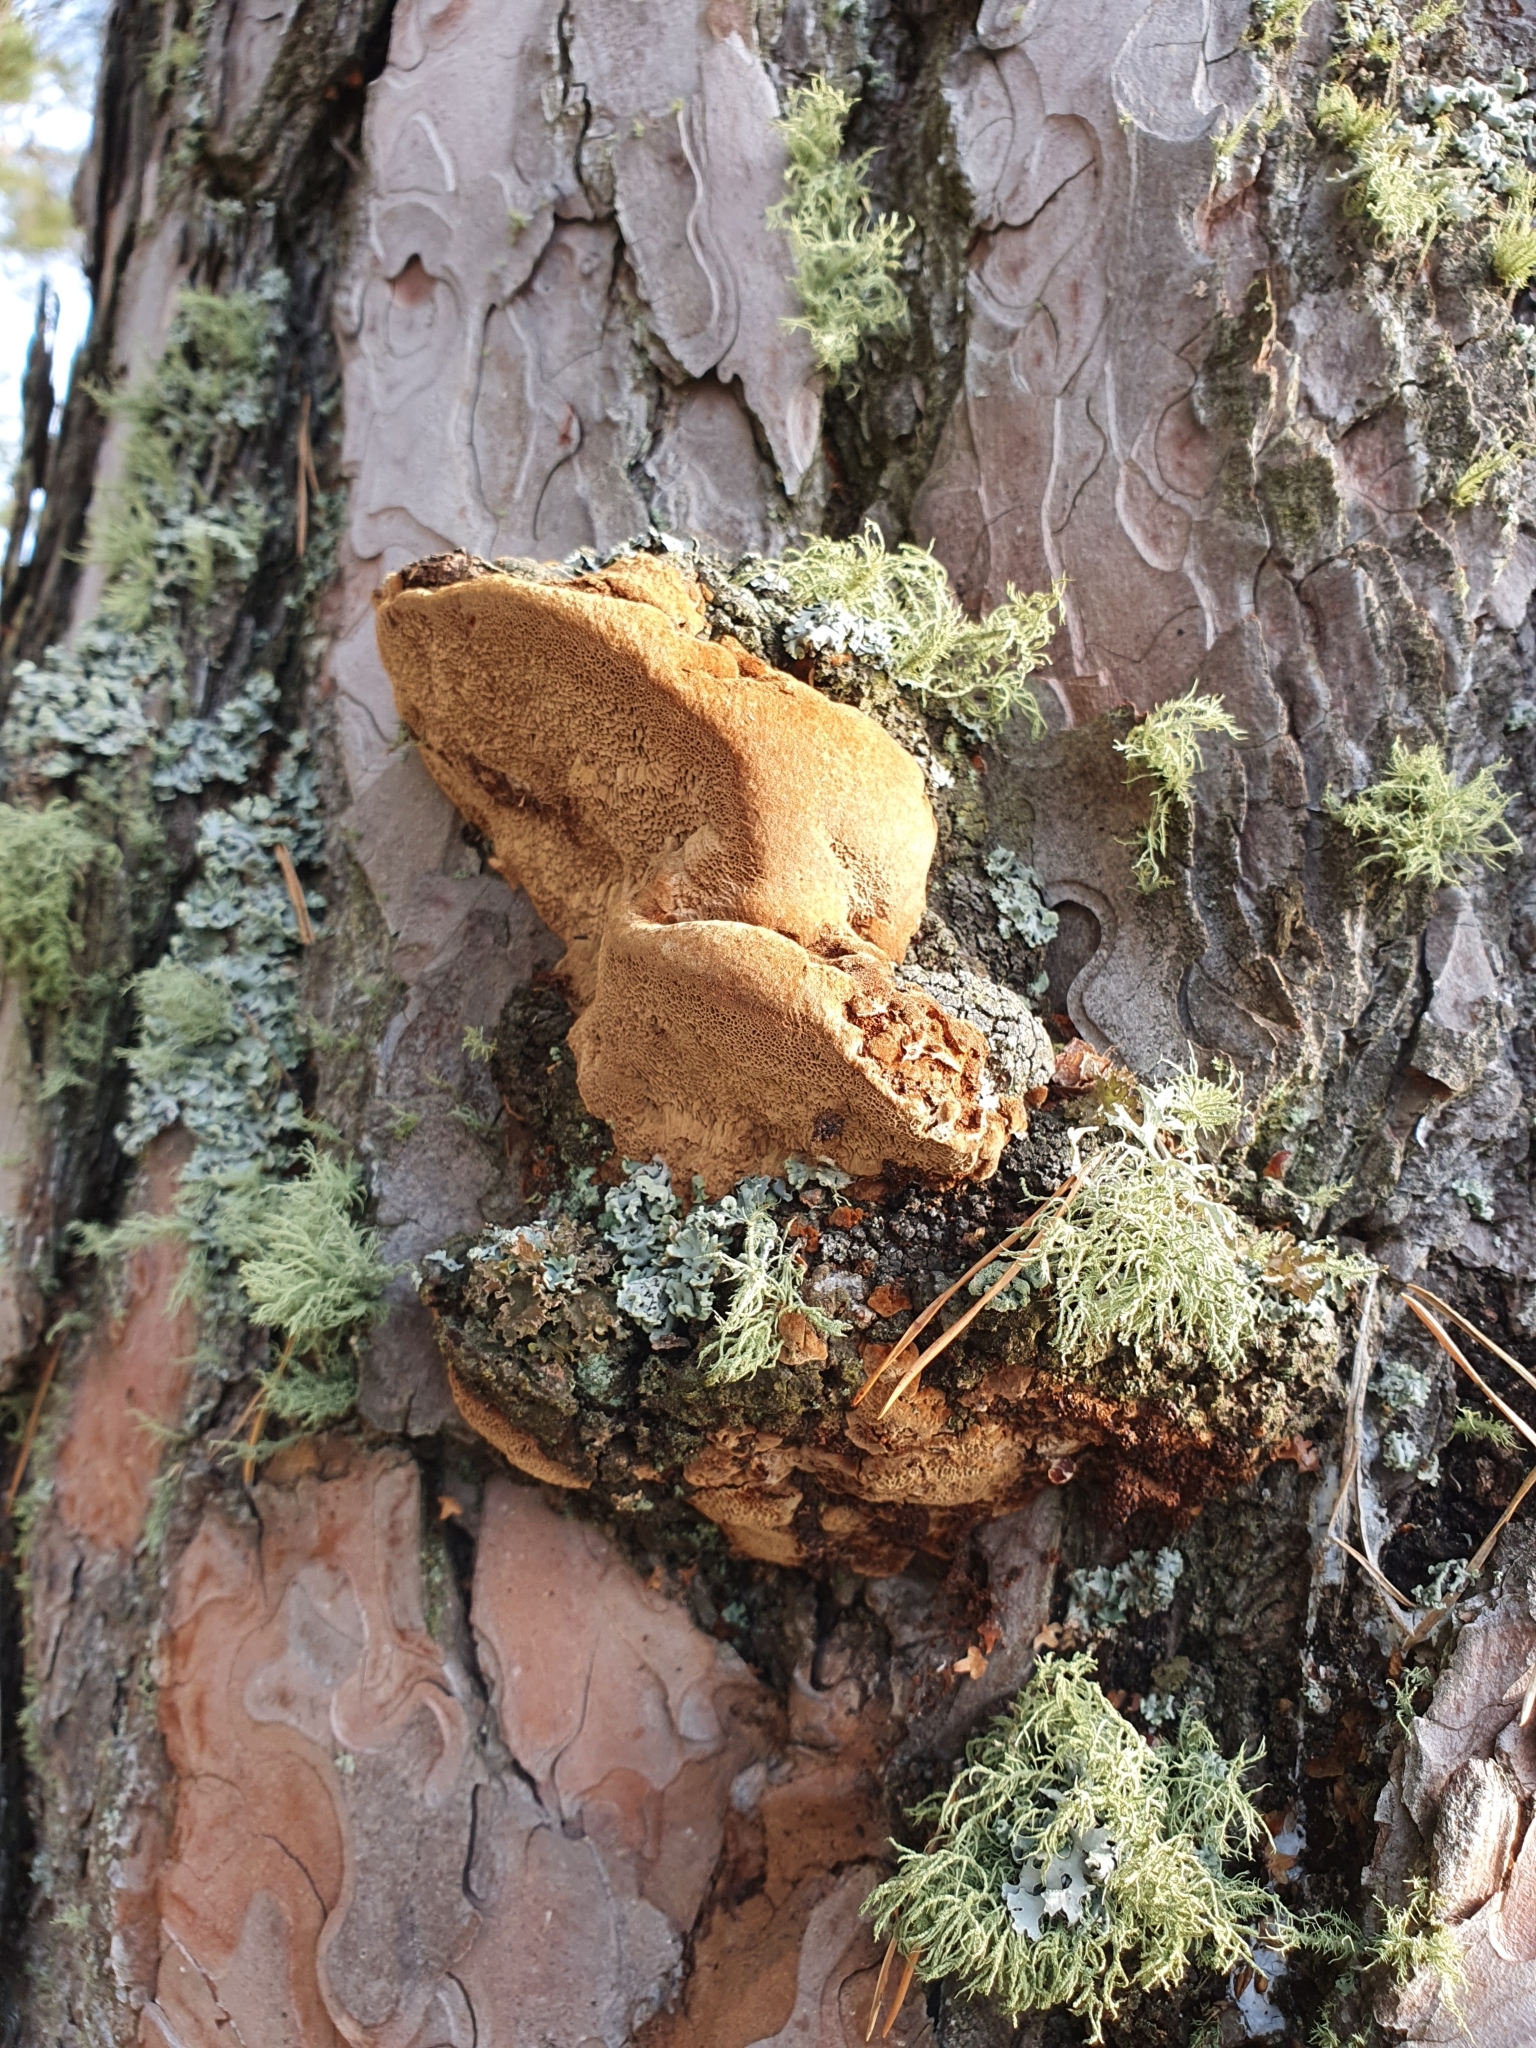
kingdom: Fungi
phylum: Basidiomycota
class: Agaricomycetes
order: Hymenochaetales
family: Hymenochaetaceae
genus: Porodaedalea
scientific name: Porodaedalea pini
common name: Pine bracket
